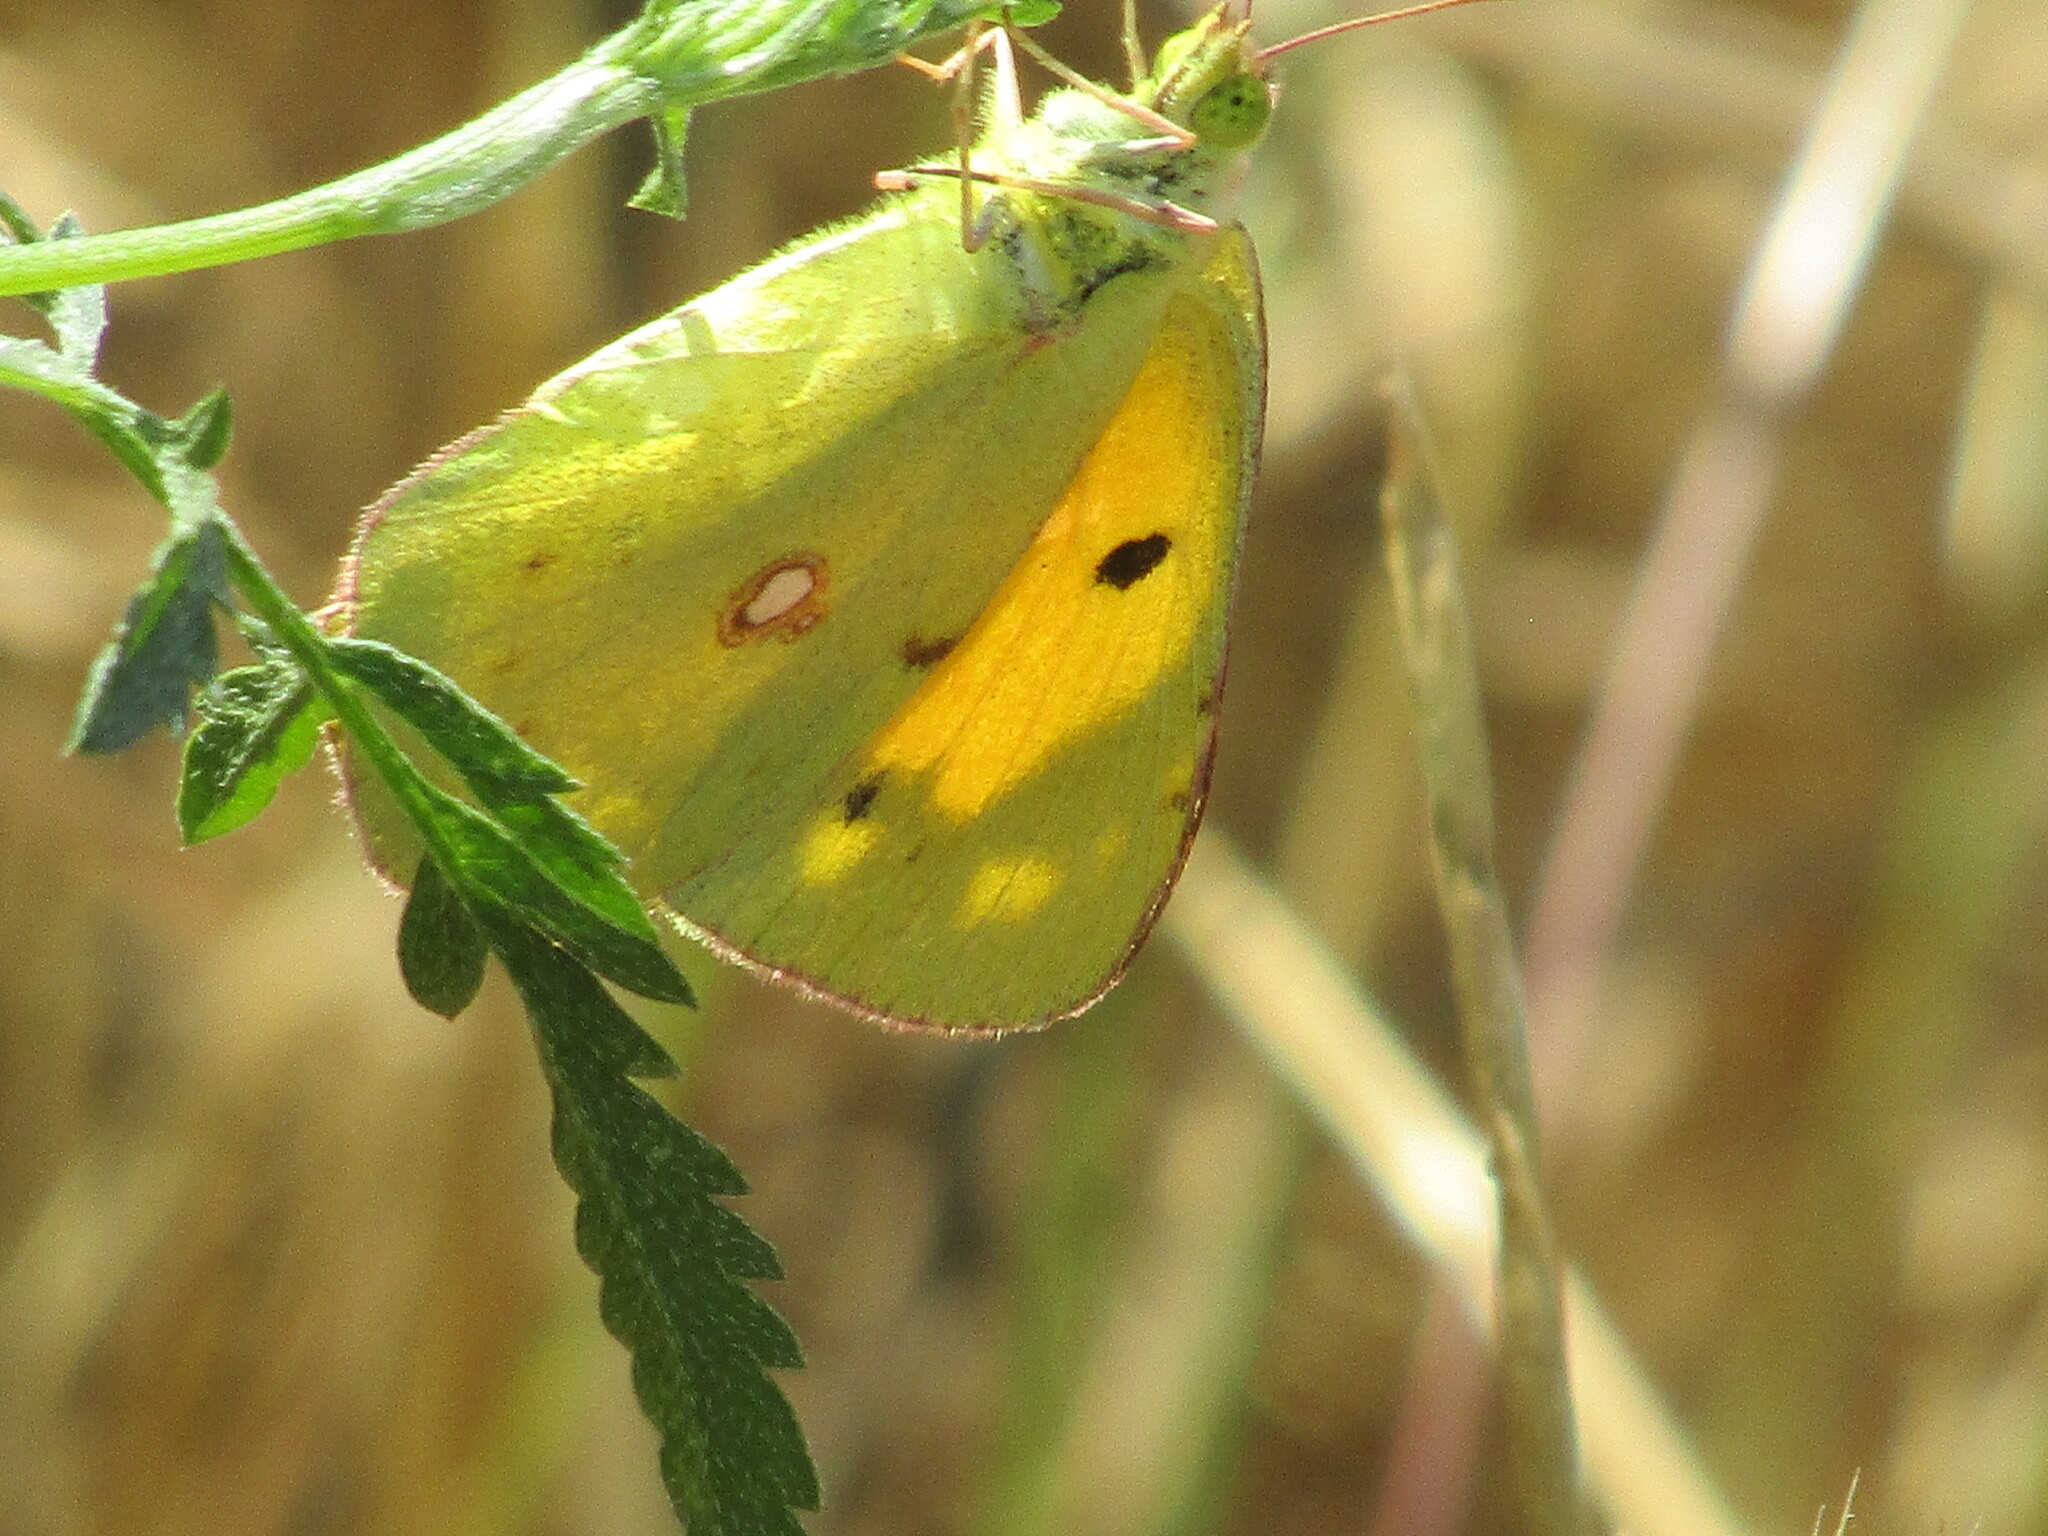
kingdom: Animalia
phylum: Arthropoda
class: Insecta
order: Lepidoptera
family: Pieridae
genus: Colias
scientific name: Colias croceus
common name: Clouded yellow
